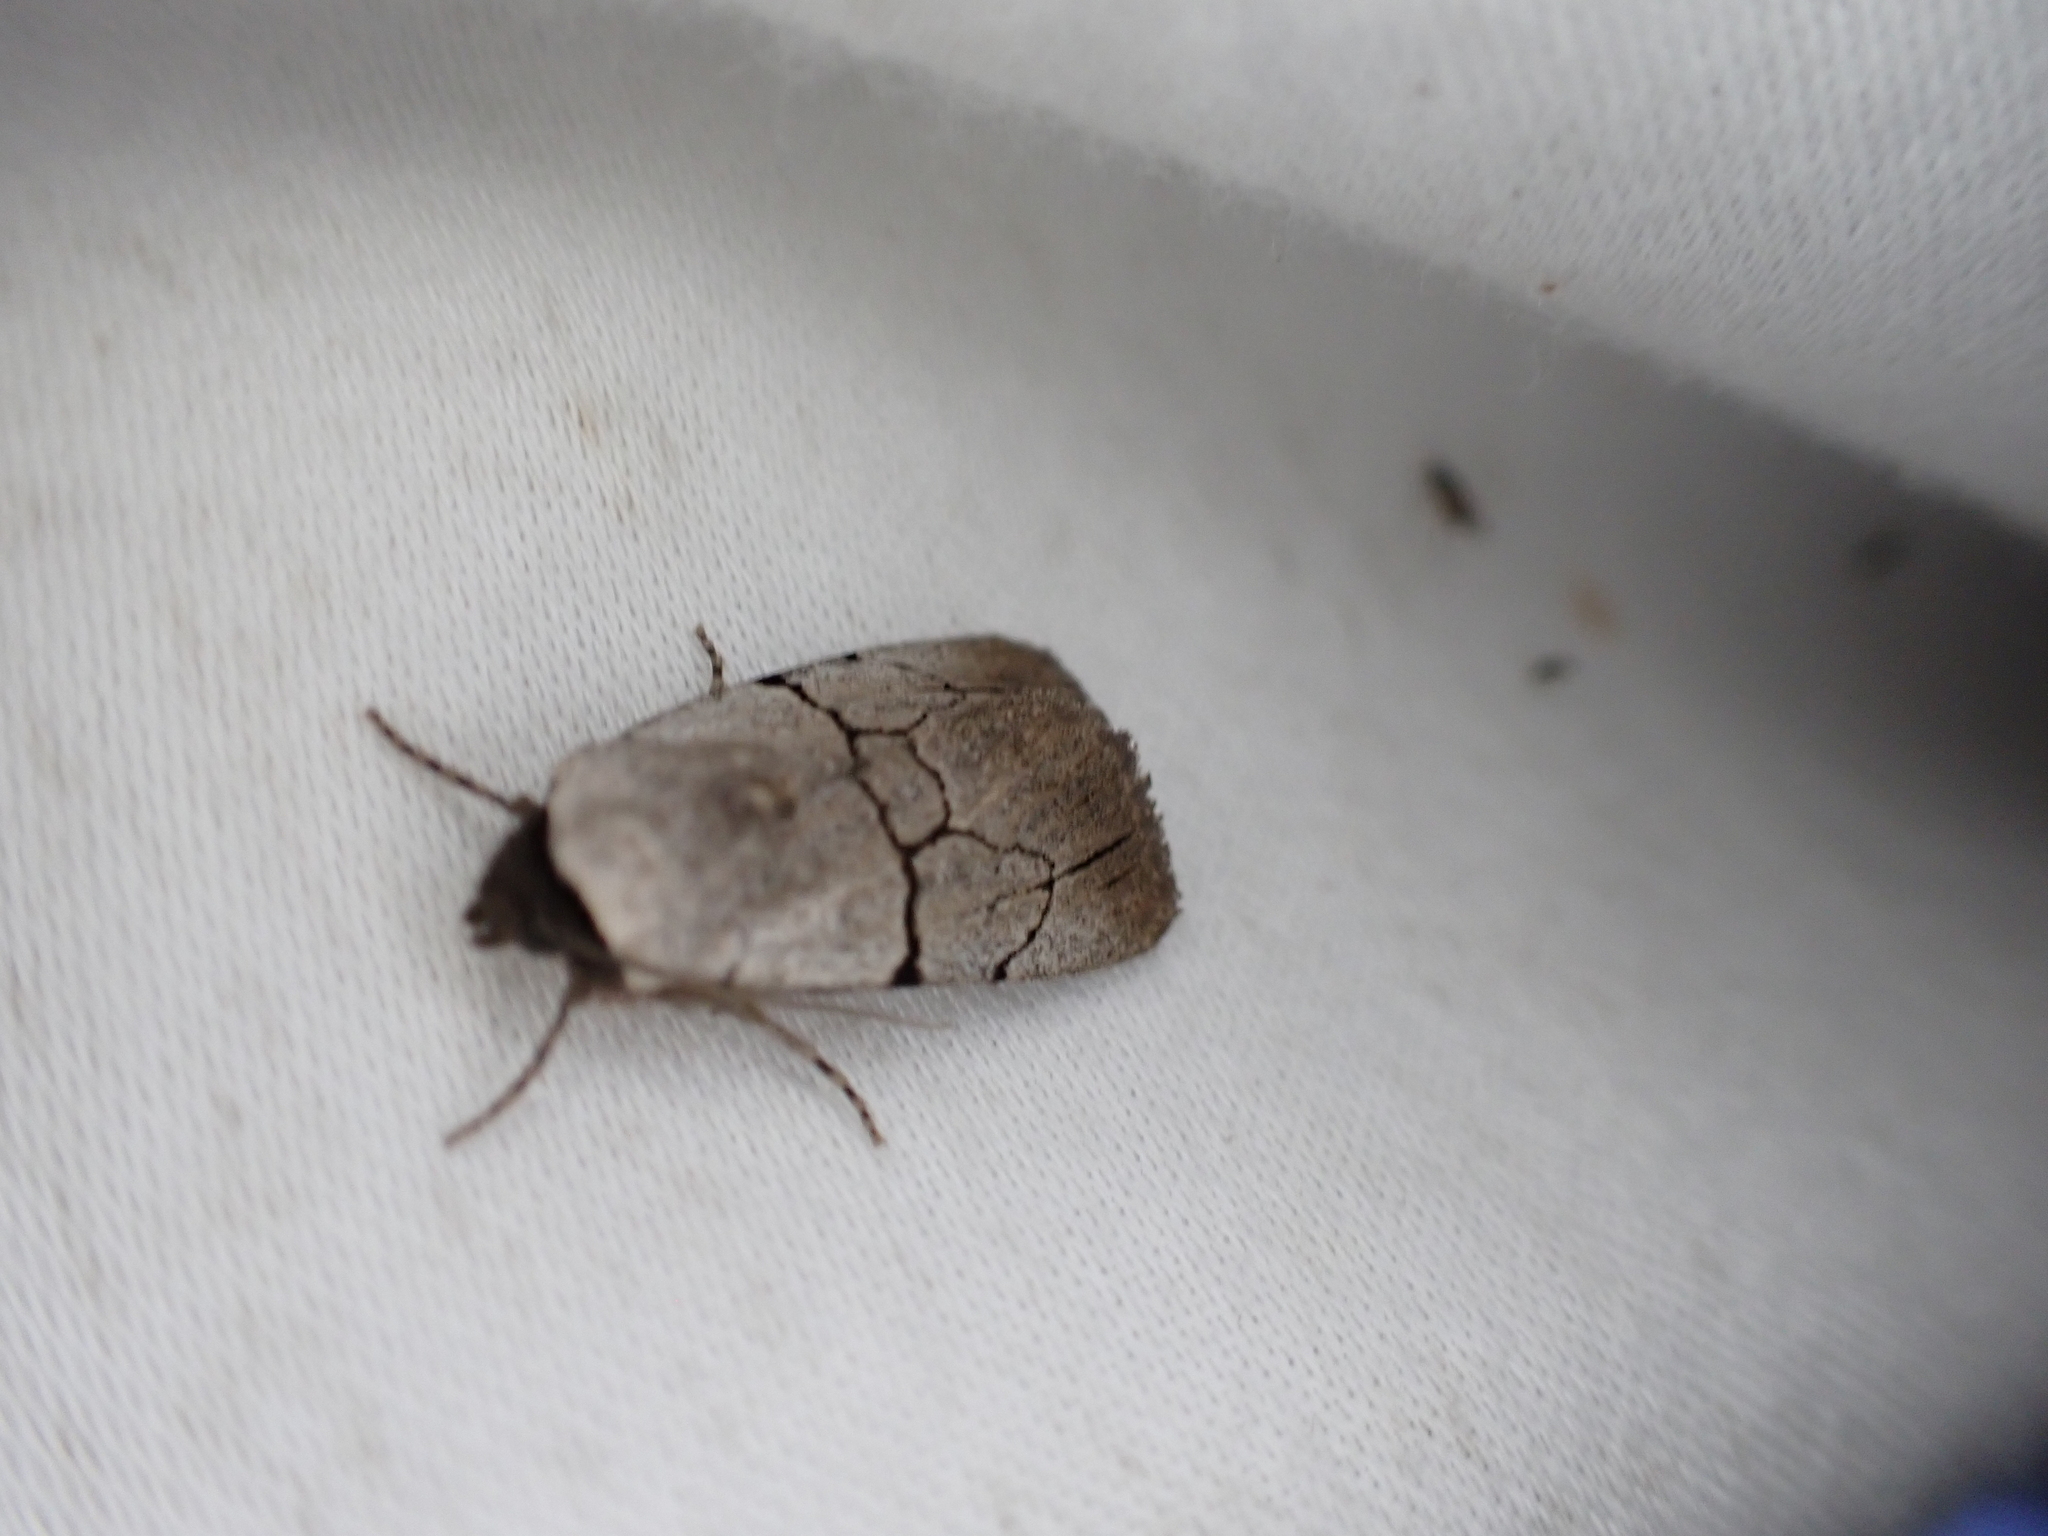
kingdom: Animalia
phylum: Arthropoda
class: Insecta
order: Lepidoptera
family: Noctuidae
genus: Sympistis
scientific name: Sympistis greyi
